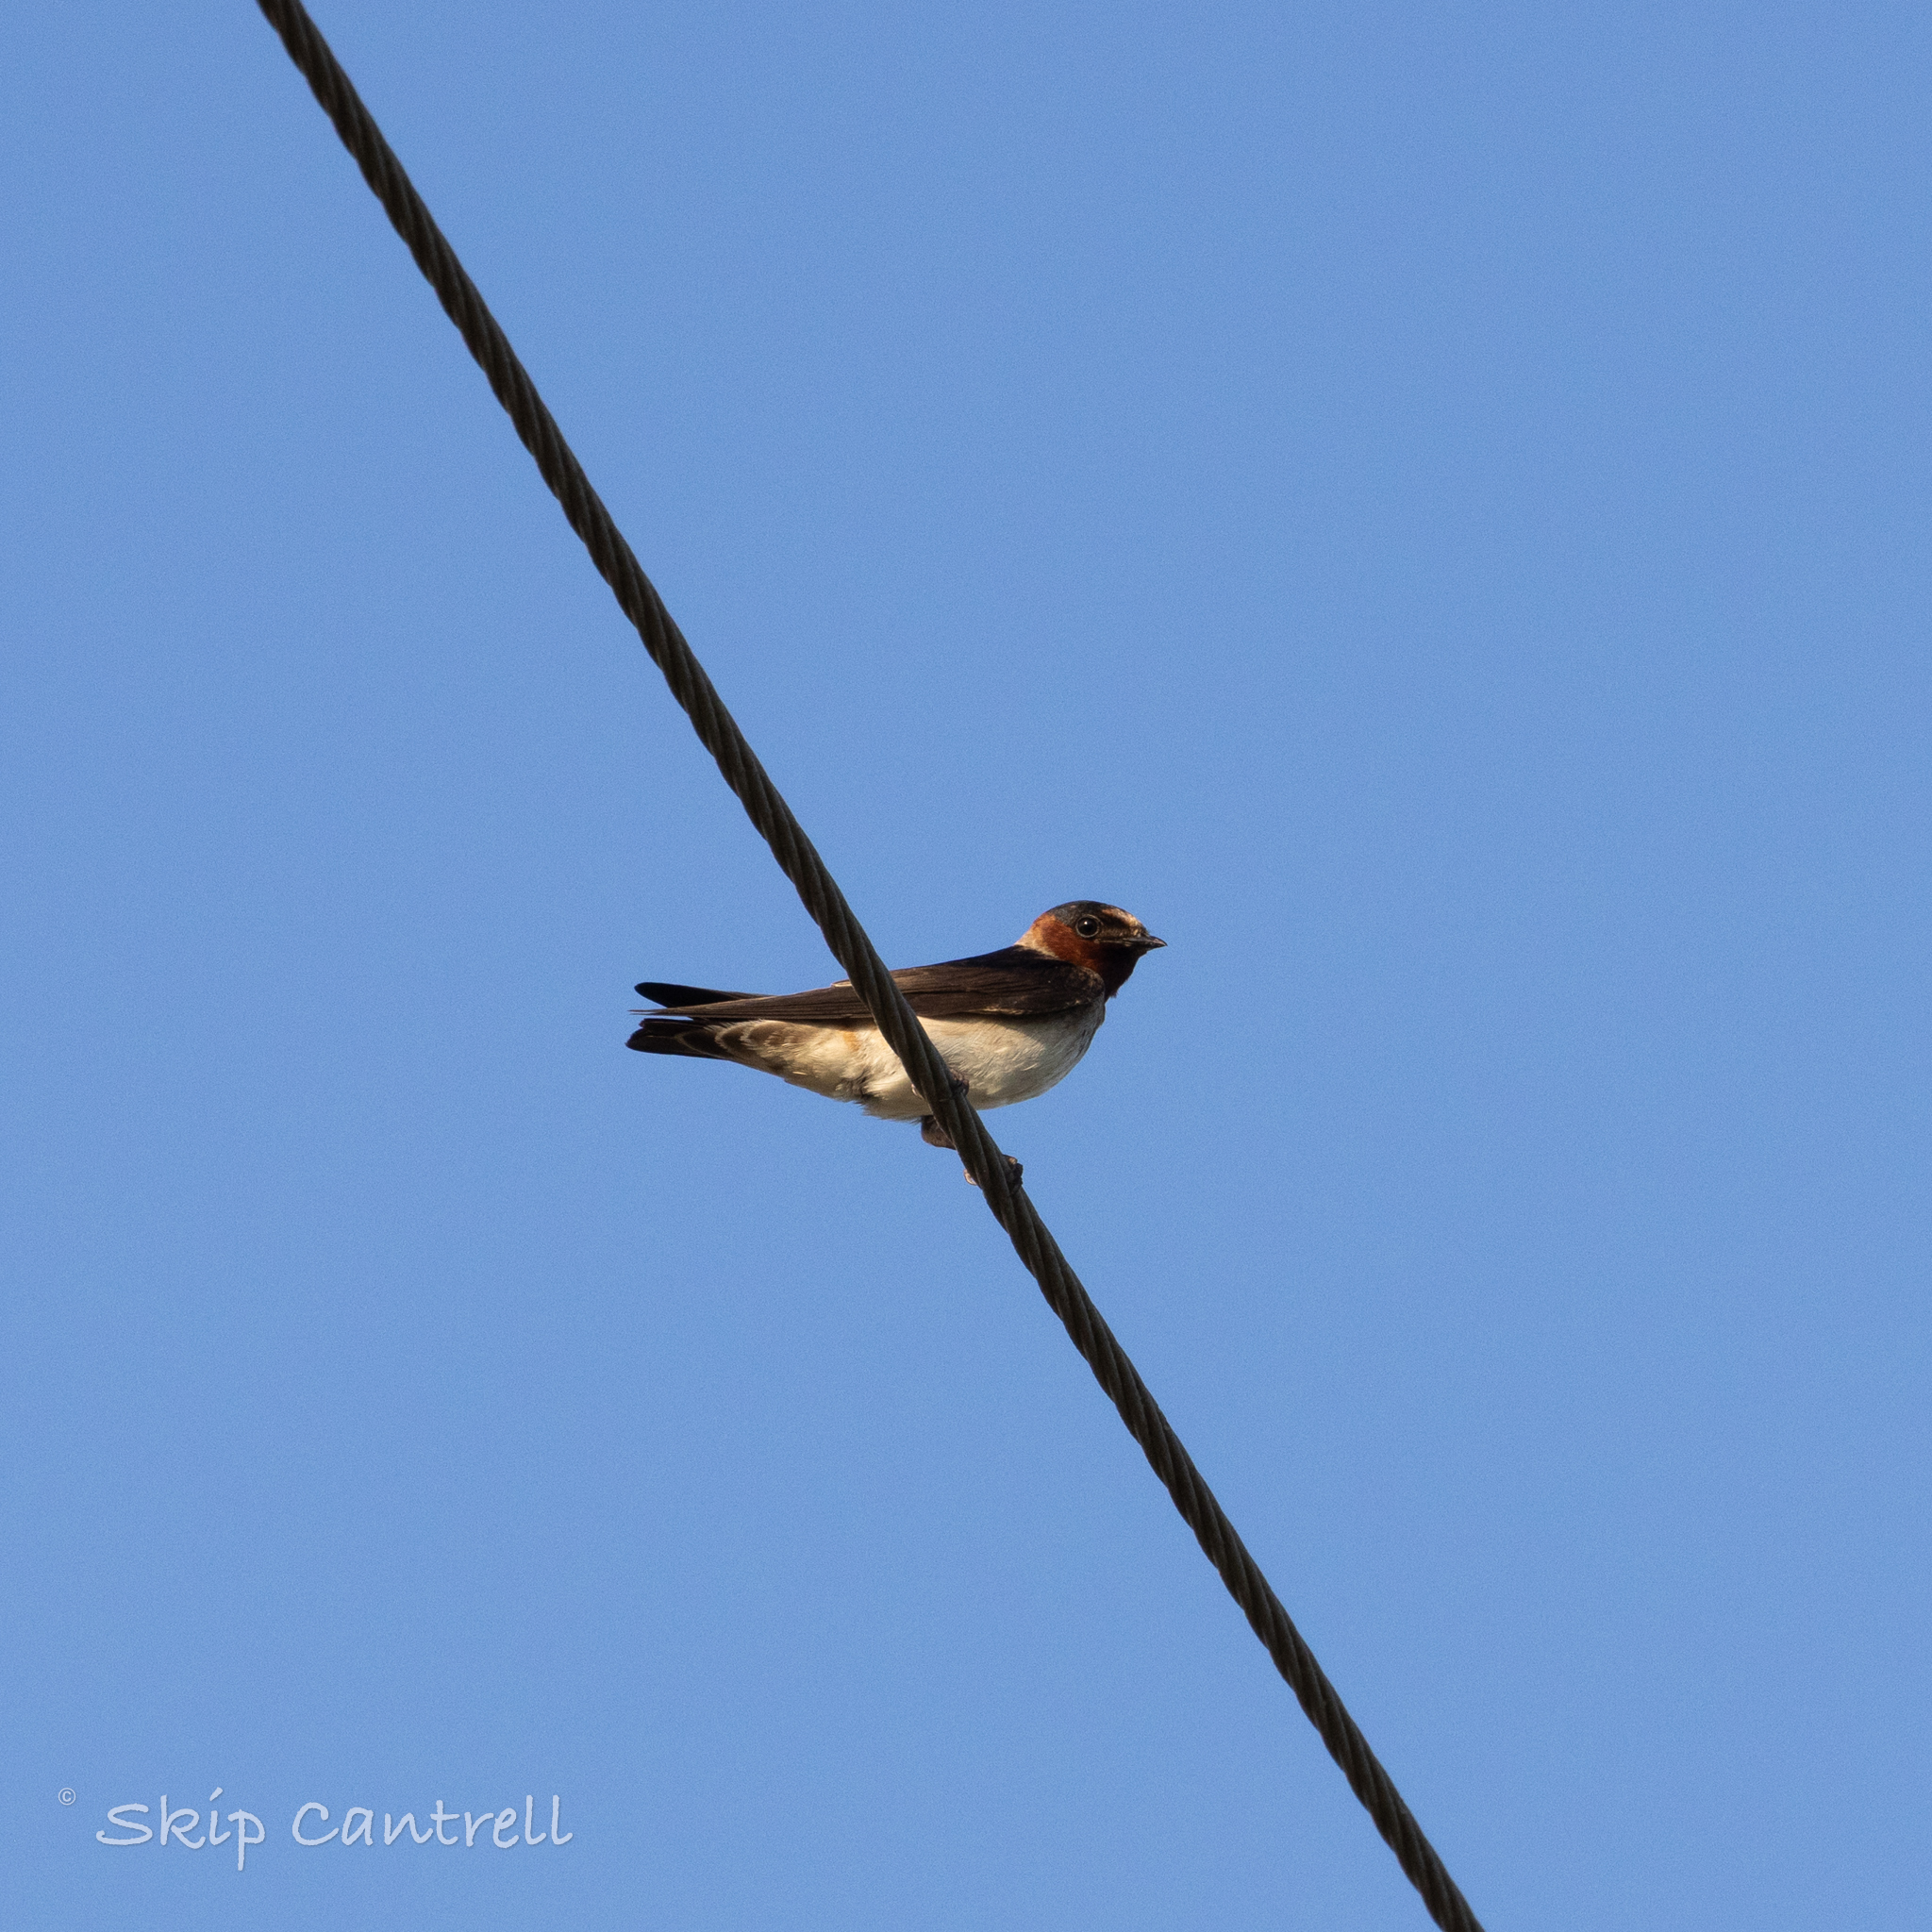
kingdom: Animalia
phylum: Chordata
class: Aves
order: Passeriformes
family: Hirundinidae
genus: Petrochelidon
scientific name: Petrochelidon pyrrhonota
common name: American cliff swallow
